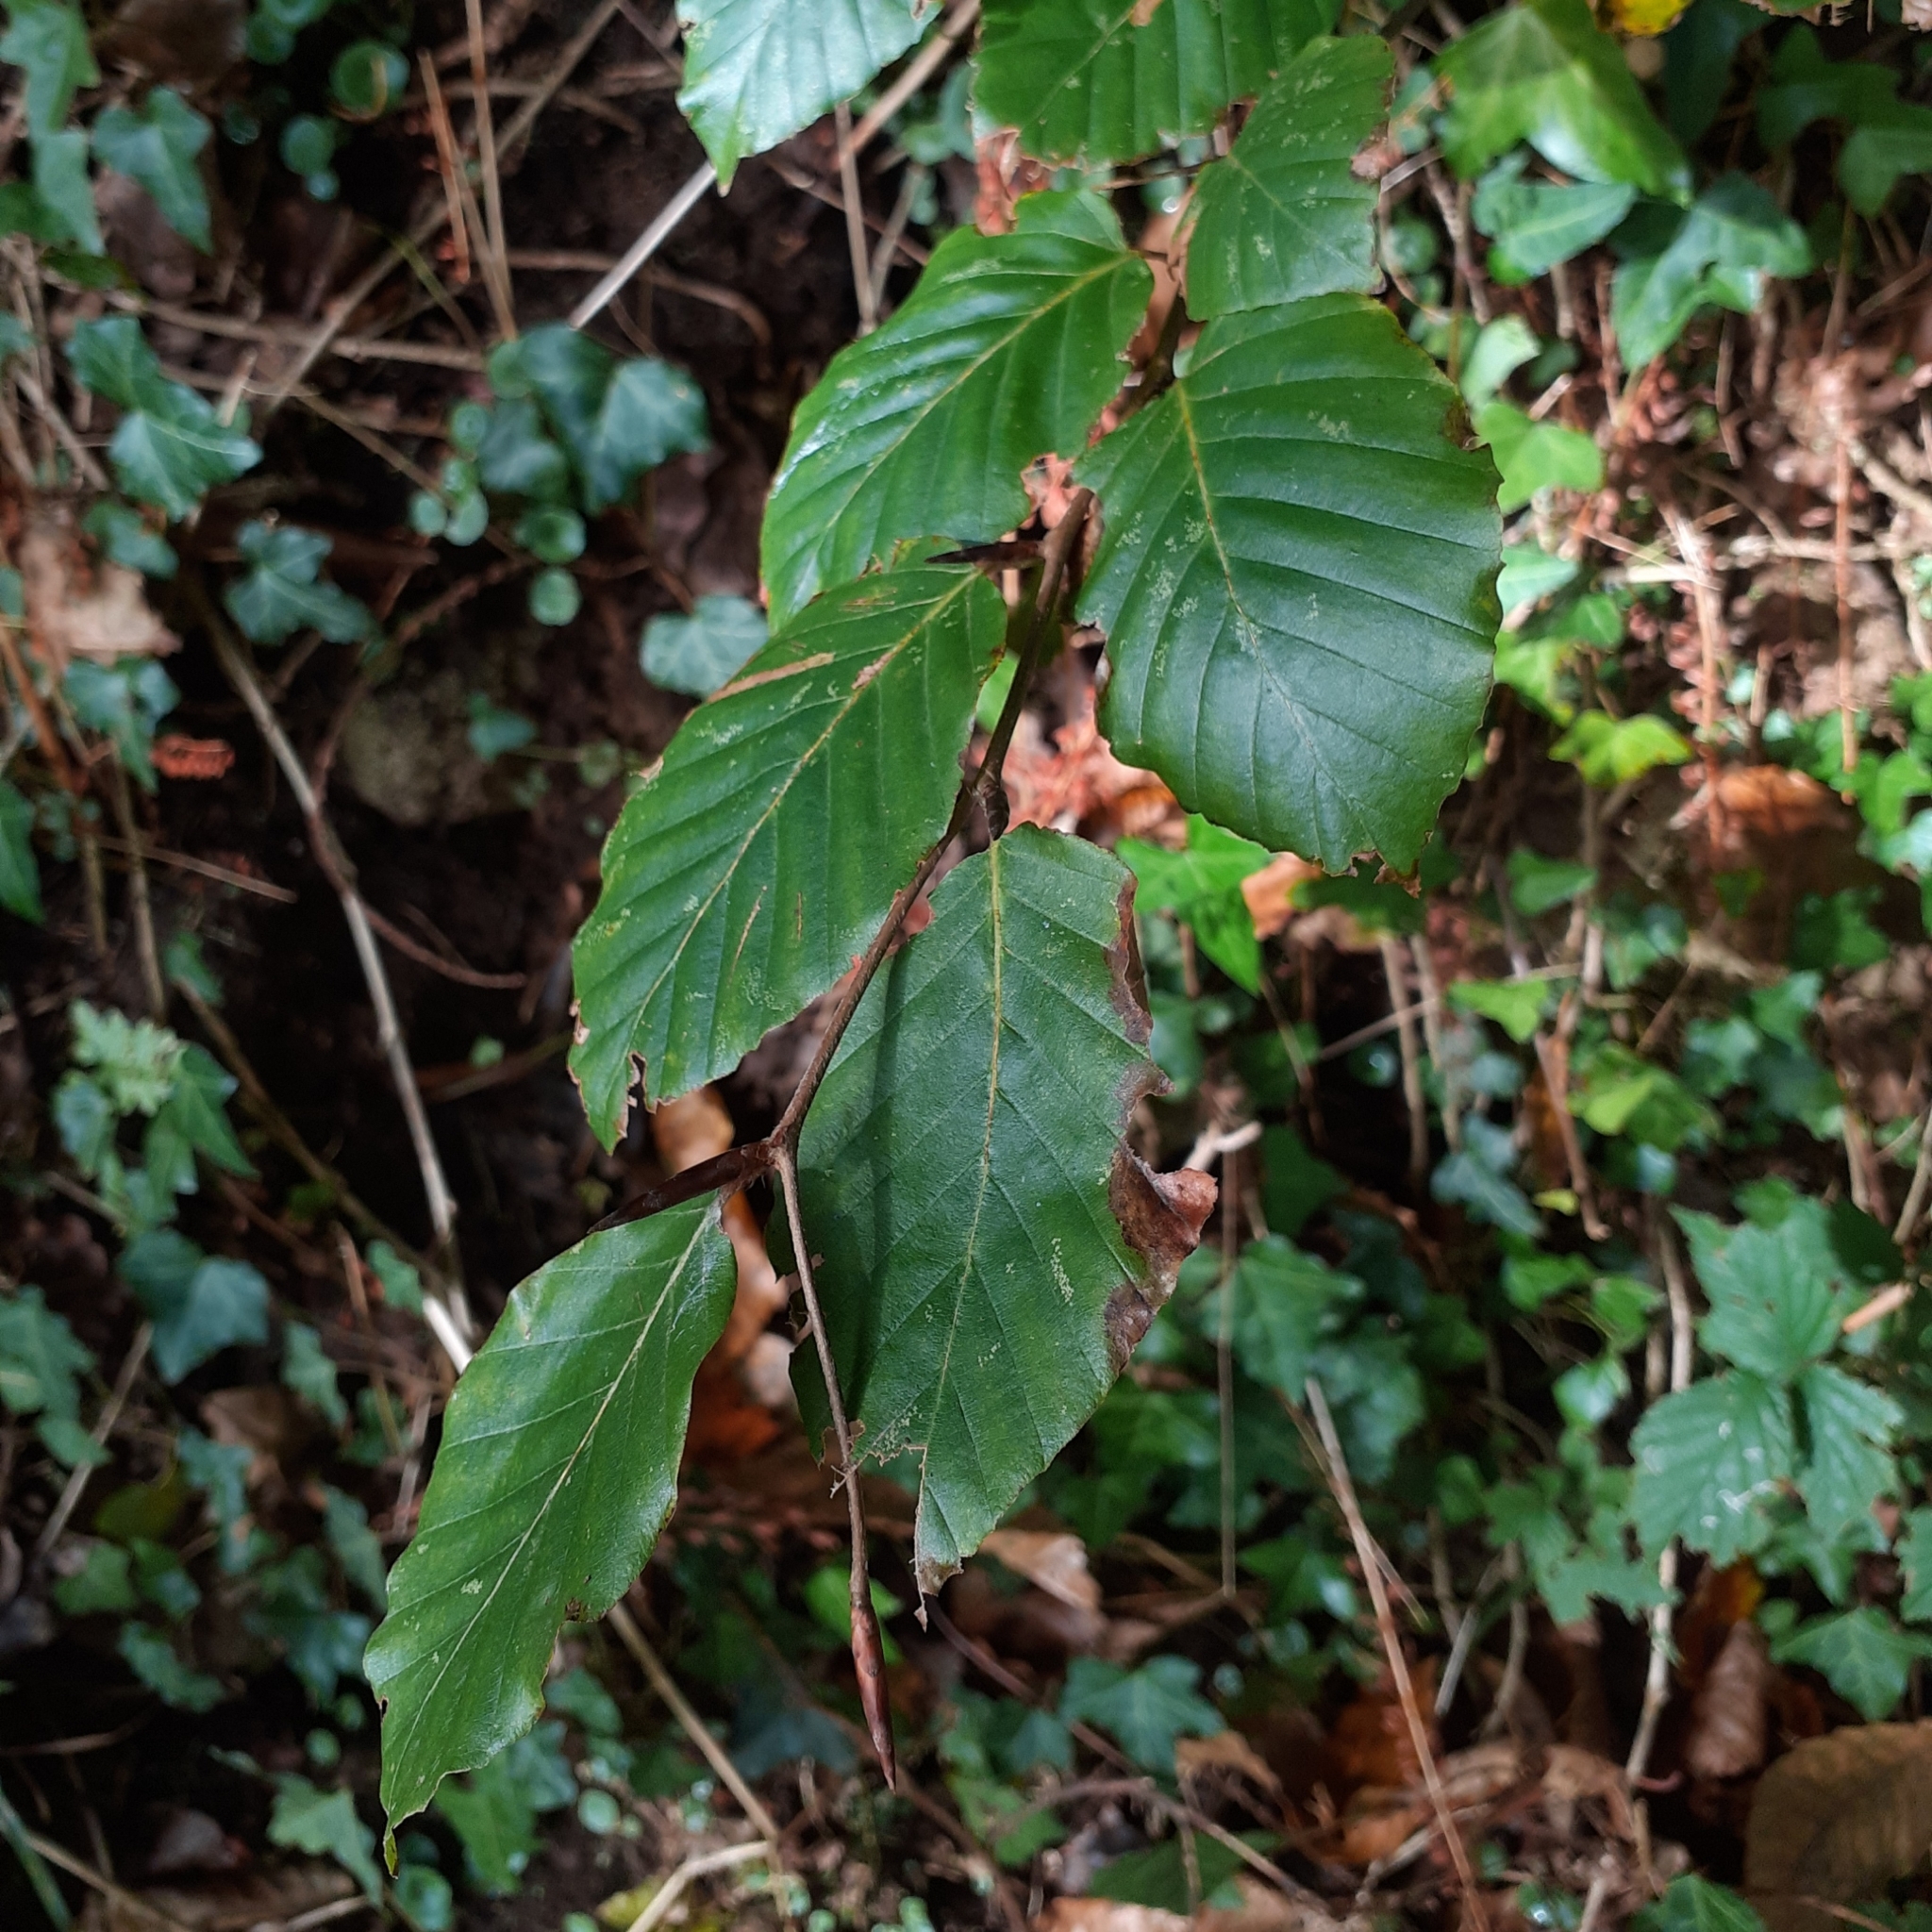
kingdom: Plantae
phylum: Tracheophyta
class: Magnoliopsida
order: Fagales
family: Fagaceae
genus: Fagus
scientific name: Fagus sylvatica
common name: Beech
